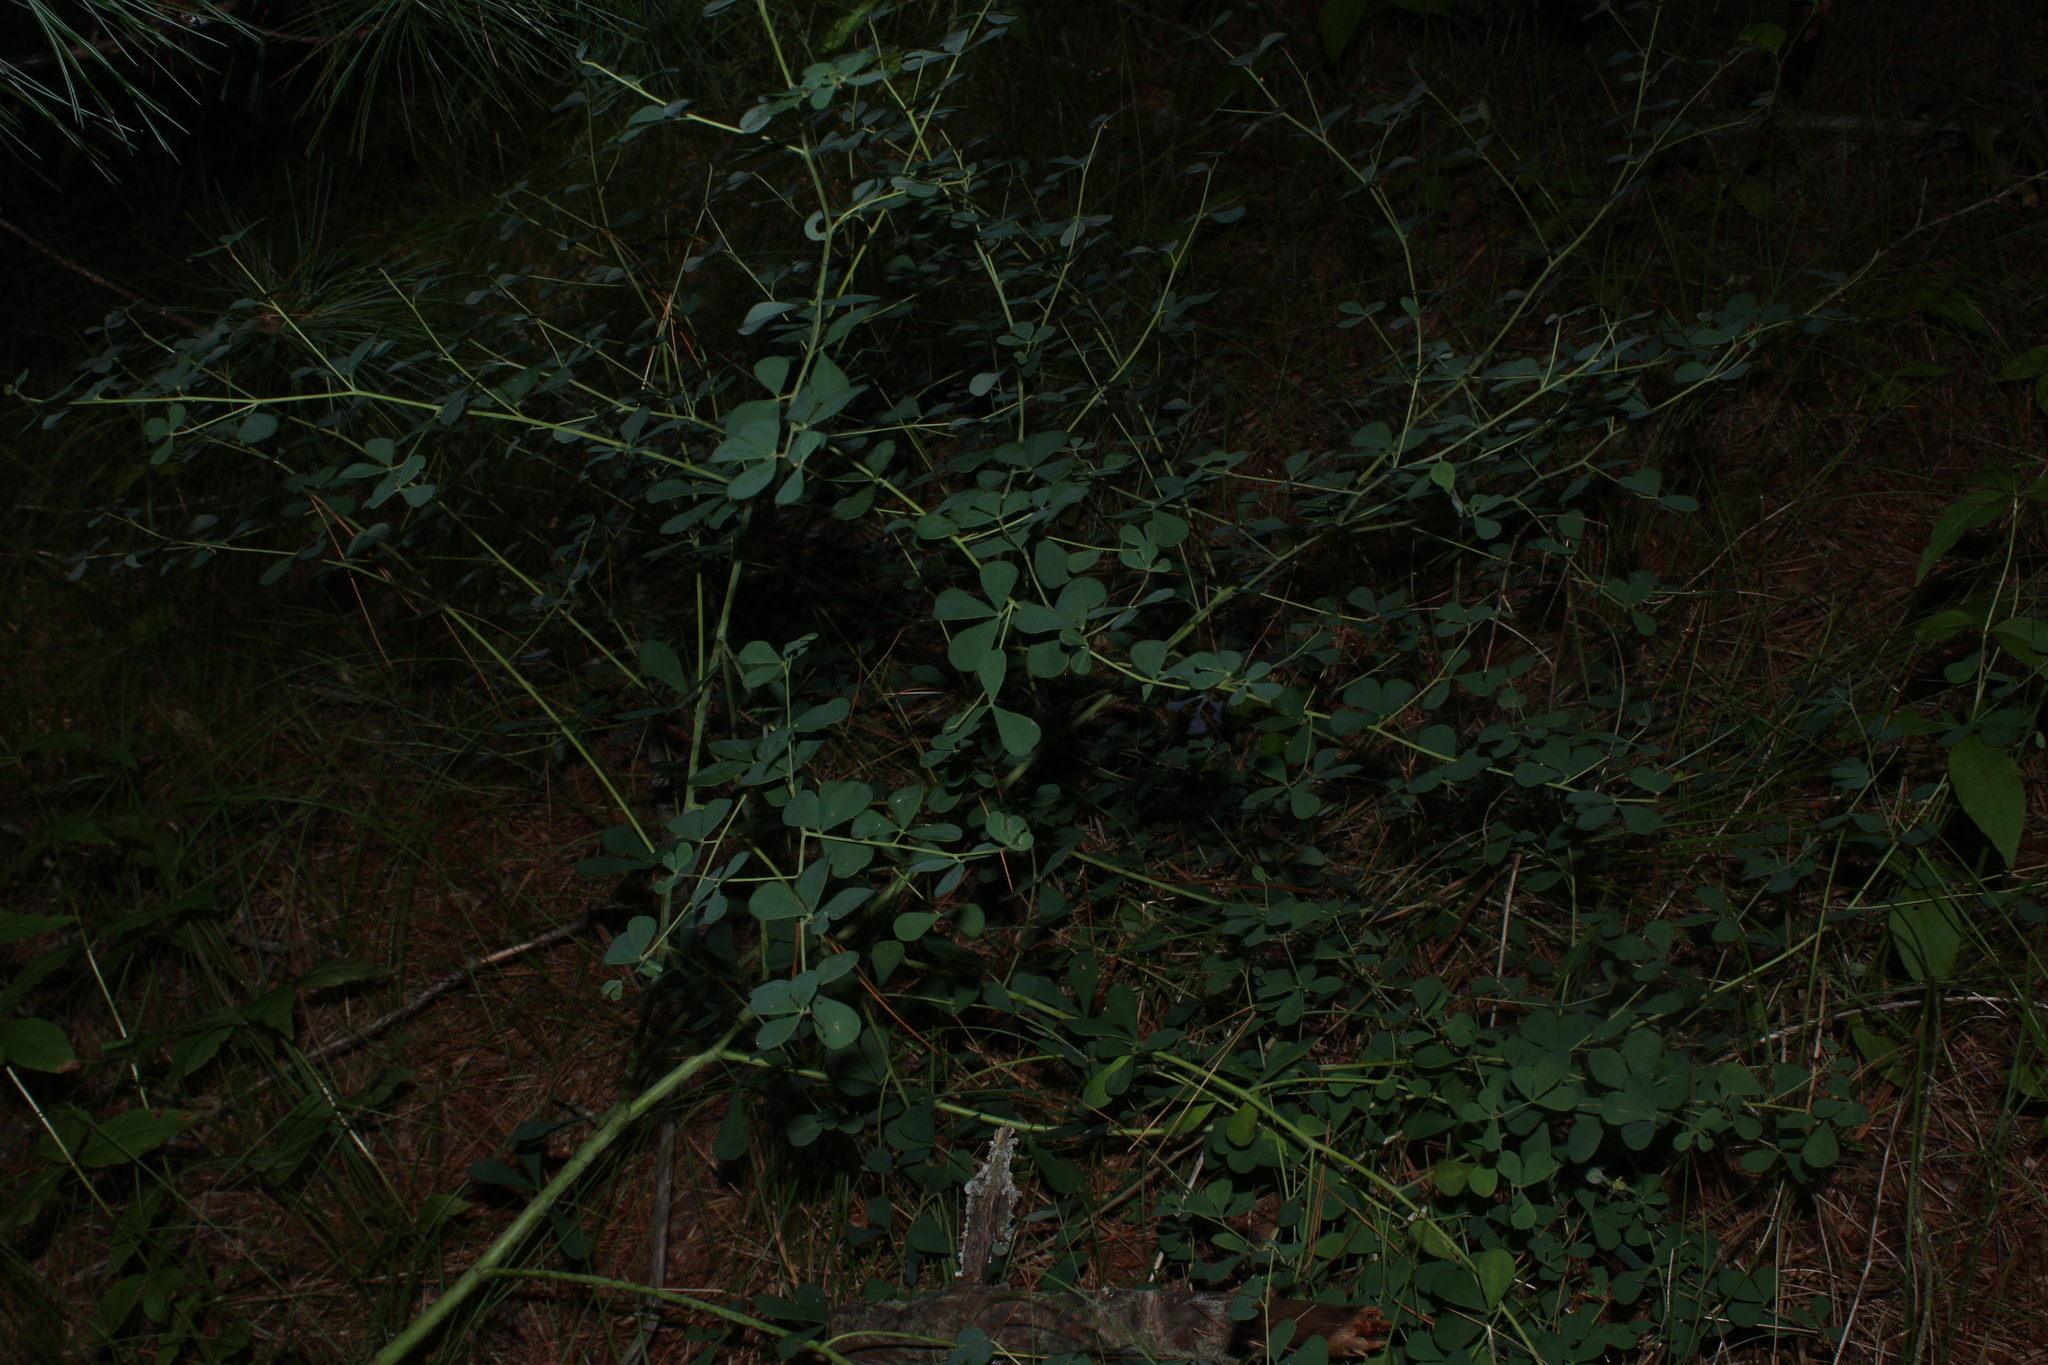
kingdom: Plantae
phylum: Tracheophyta
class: Magnoliopsida
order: Fabales
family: Fabaceae
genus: Baptisia
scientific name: Baptisia tinctoria
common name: Wild indigo
